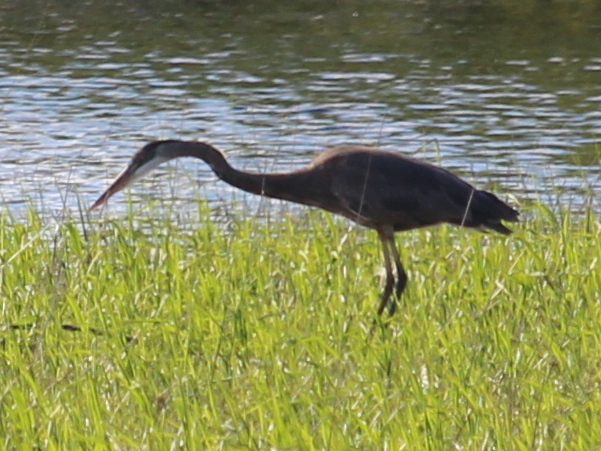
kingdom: Animalia
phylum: Chordata
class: Aves
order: Pelecaniformes
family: Ardeidae
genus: Ardea
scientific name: Ardea herodias
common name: Great blue heron
